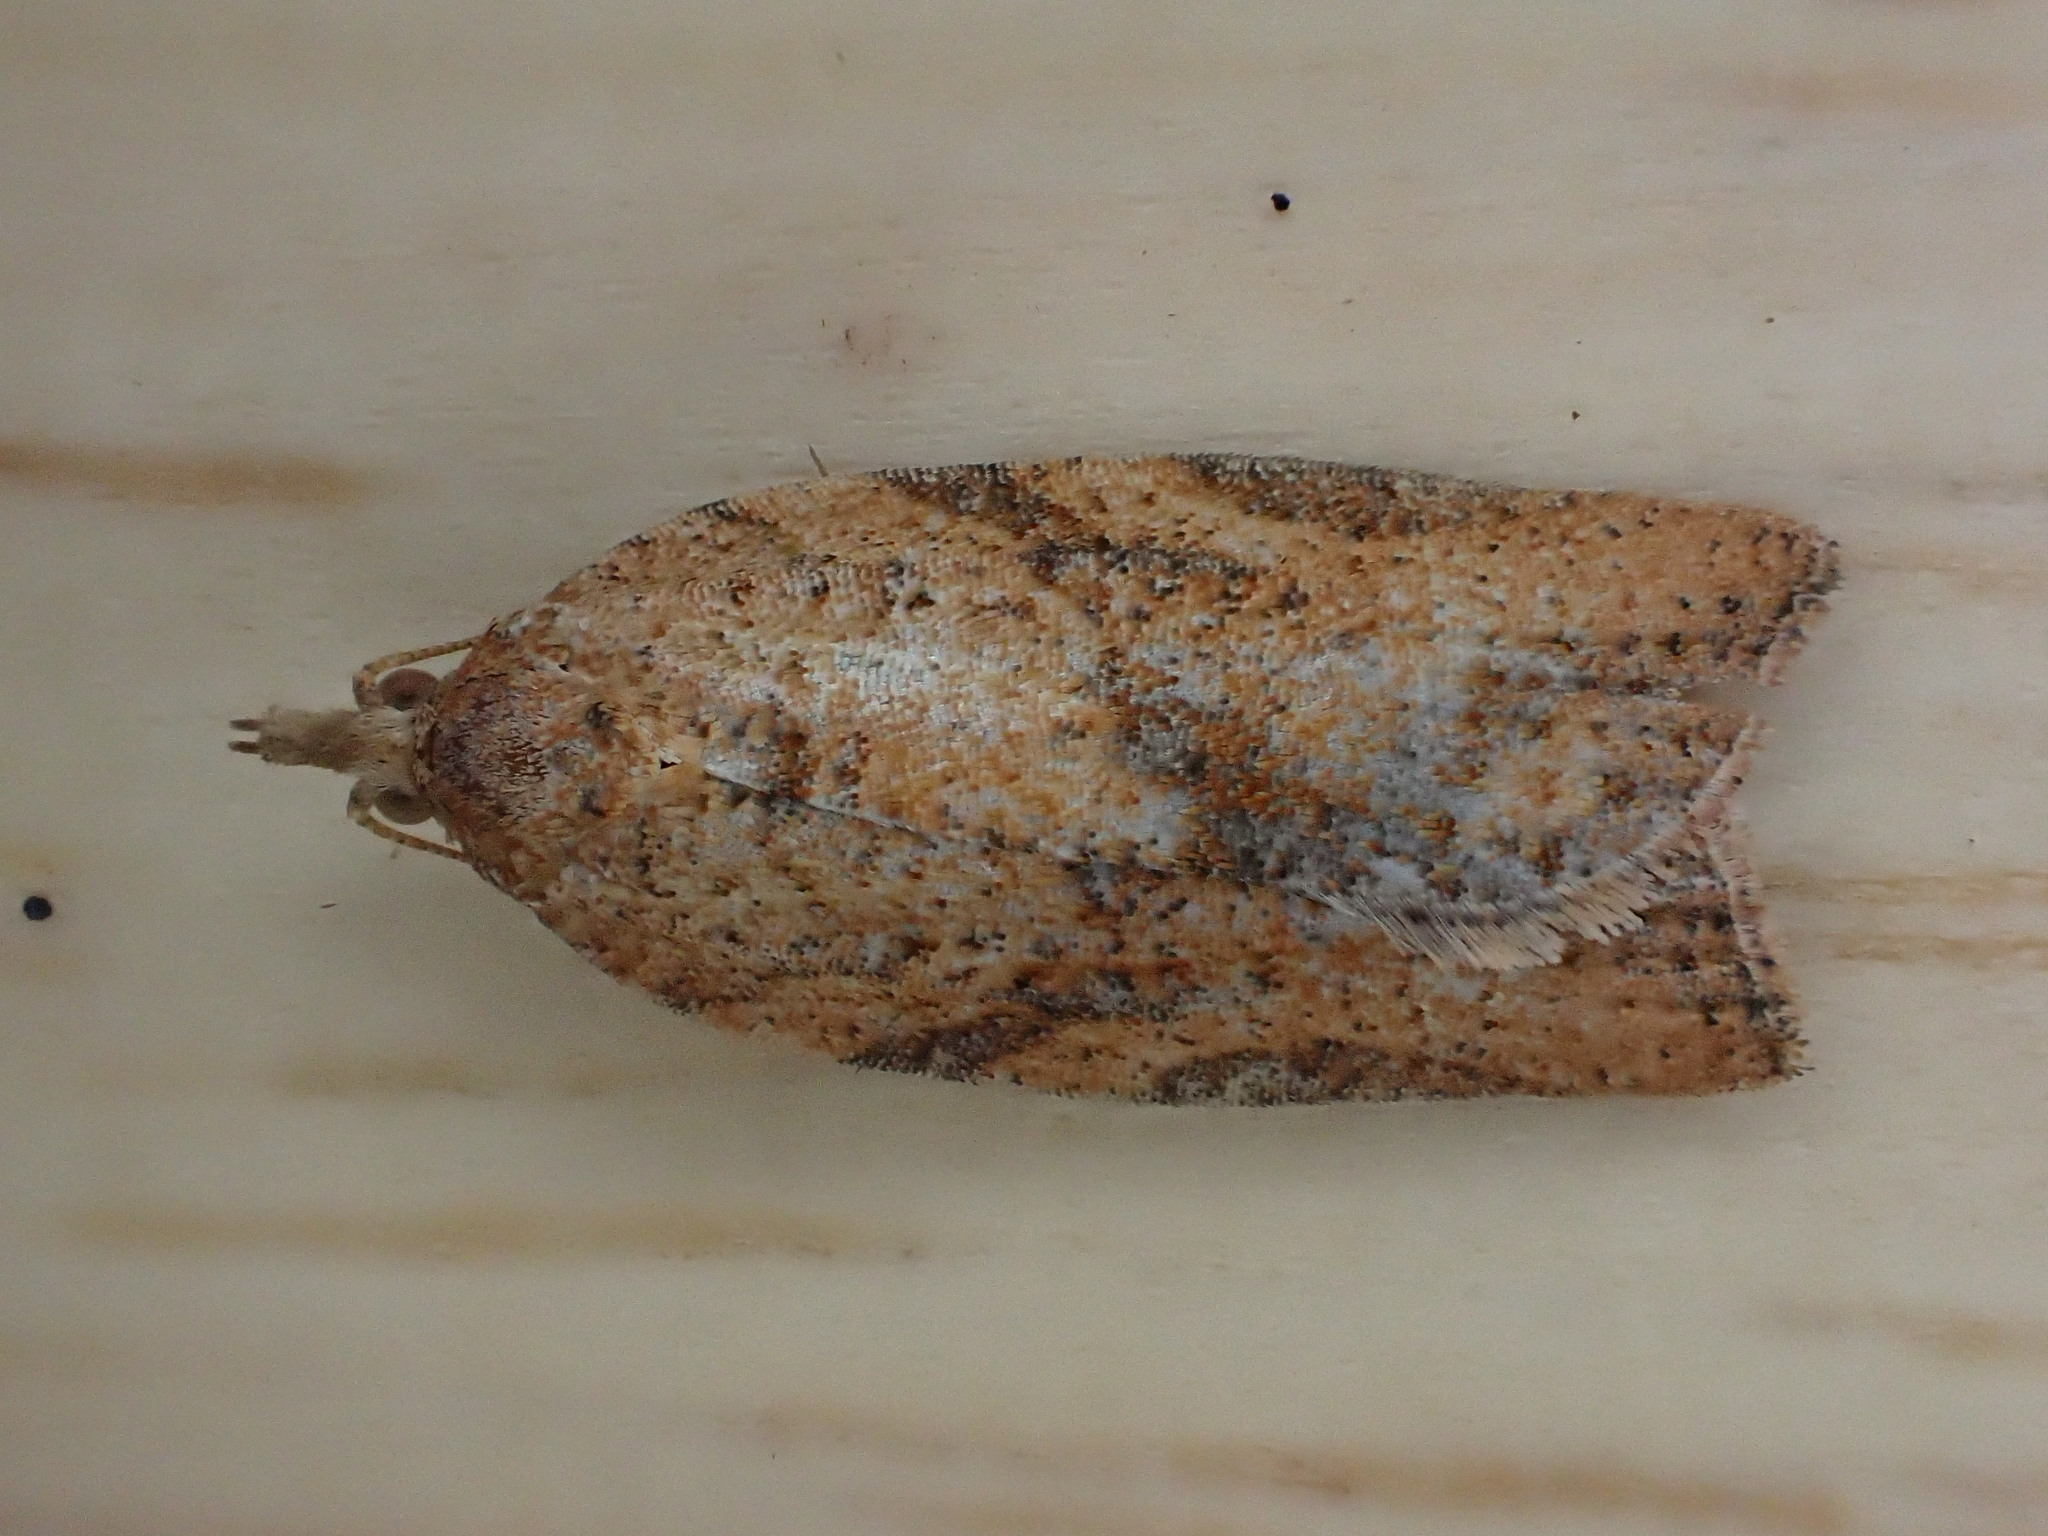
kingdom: Animalia
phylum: Arthropoda
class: Insecta
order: Lepidoptera
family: Tortricidae
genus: Epiphyas
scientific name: Epiphyas postvittana
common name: Light brown apple moth
